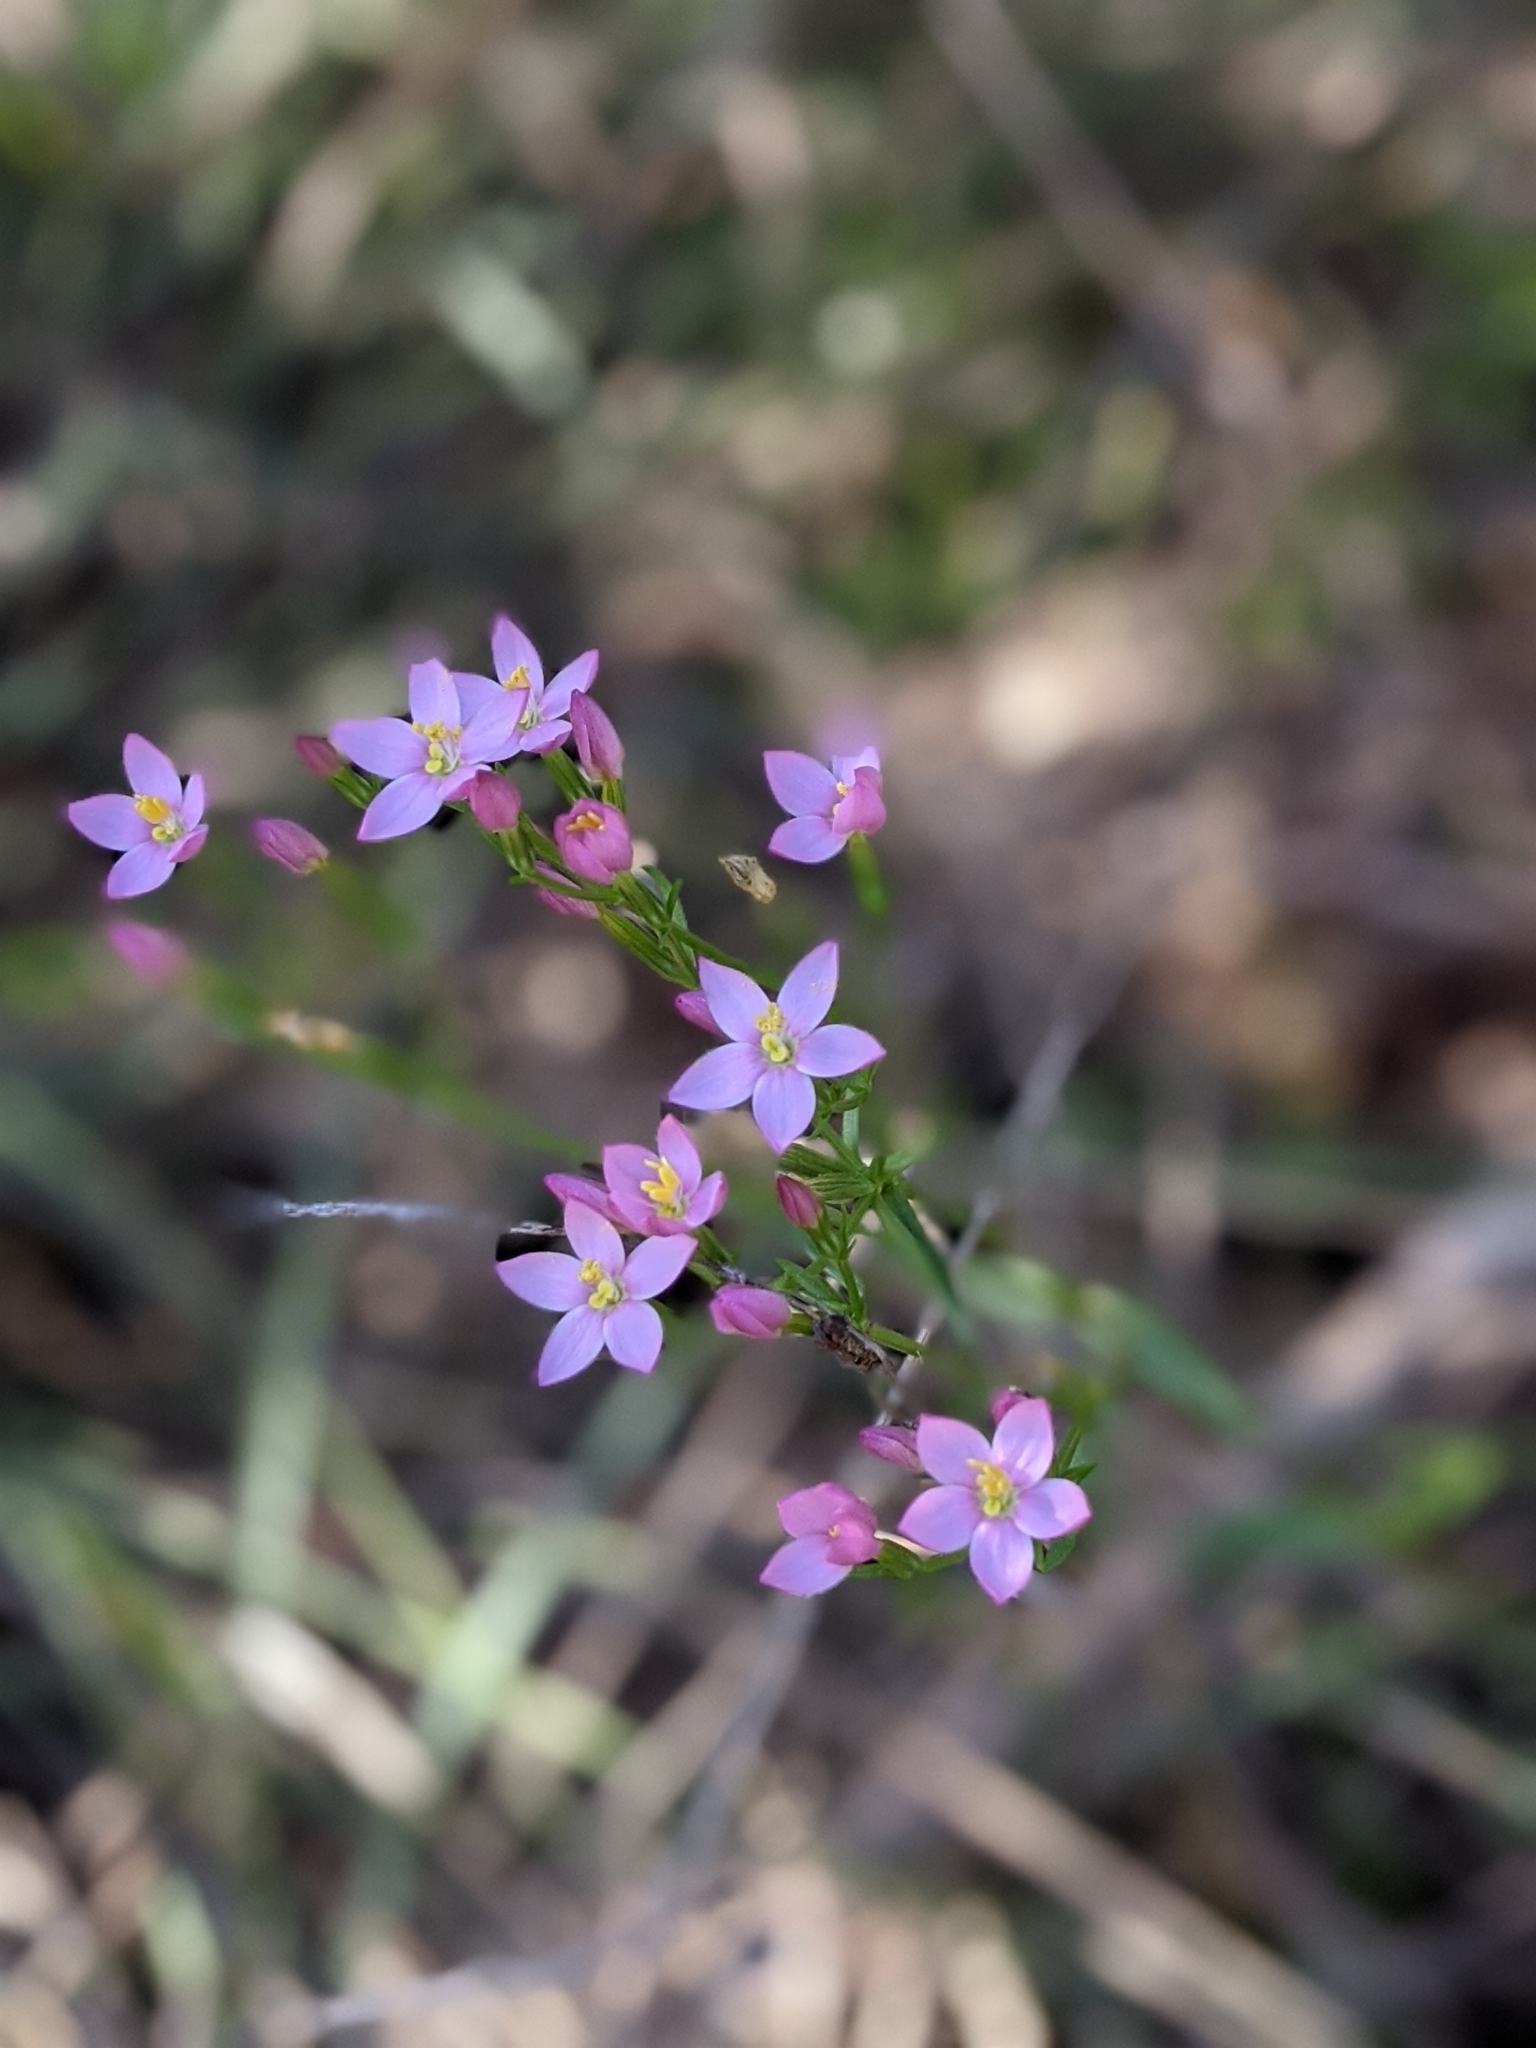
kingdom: Plantae
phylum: Tracheophyta
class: Magnoliopsida
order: Gentianales
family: Gentianaceae
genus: Centaurium
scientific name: Centaurium erythraea
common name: Common centaury
